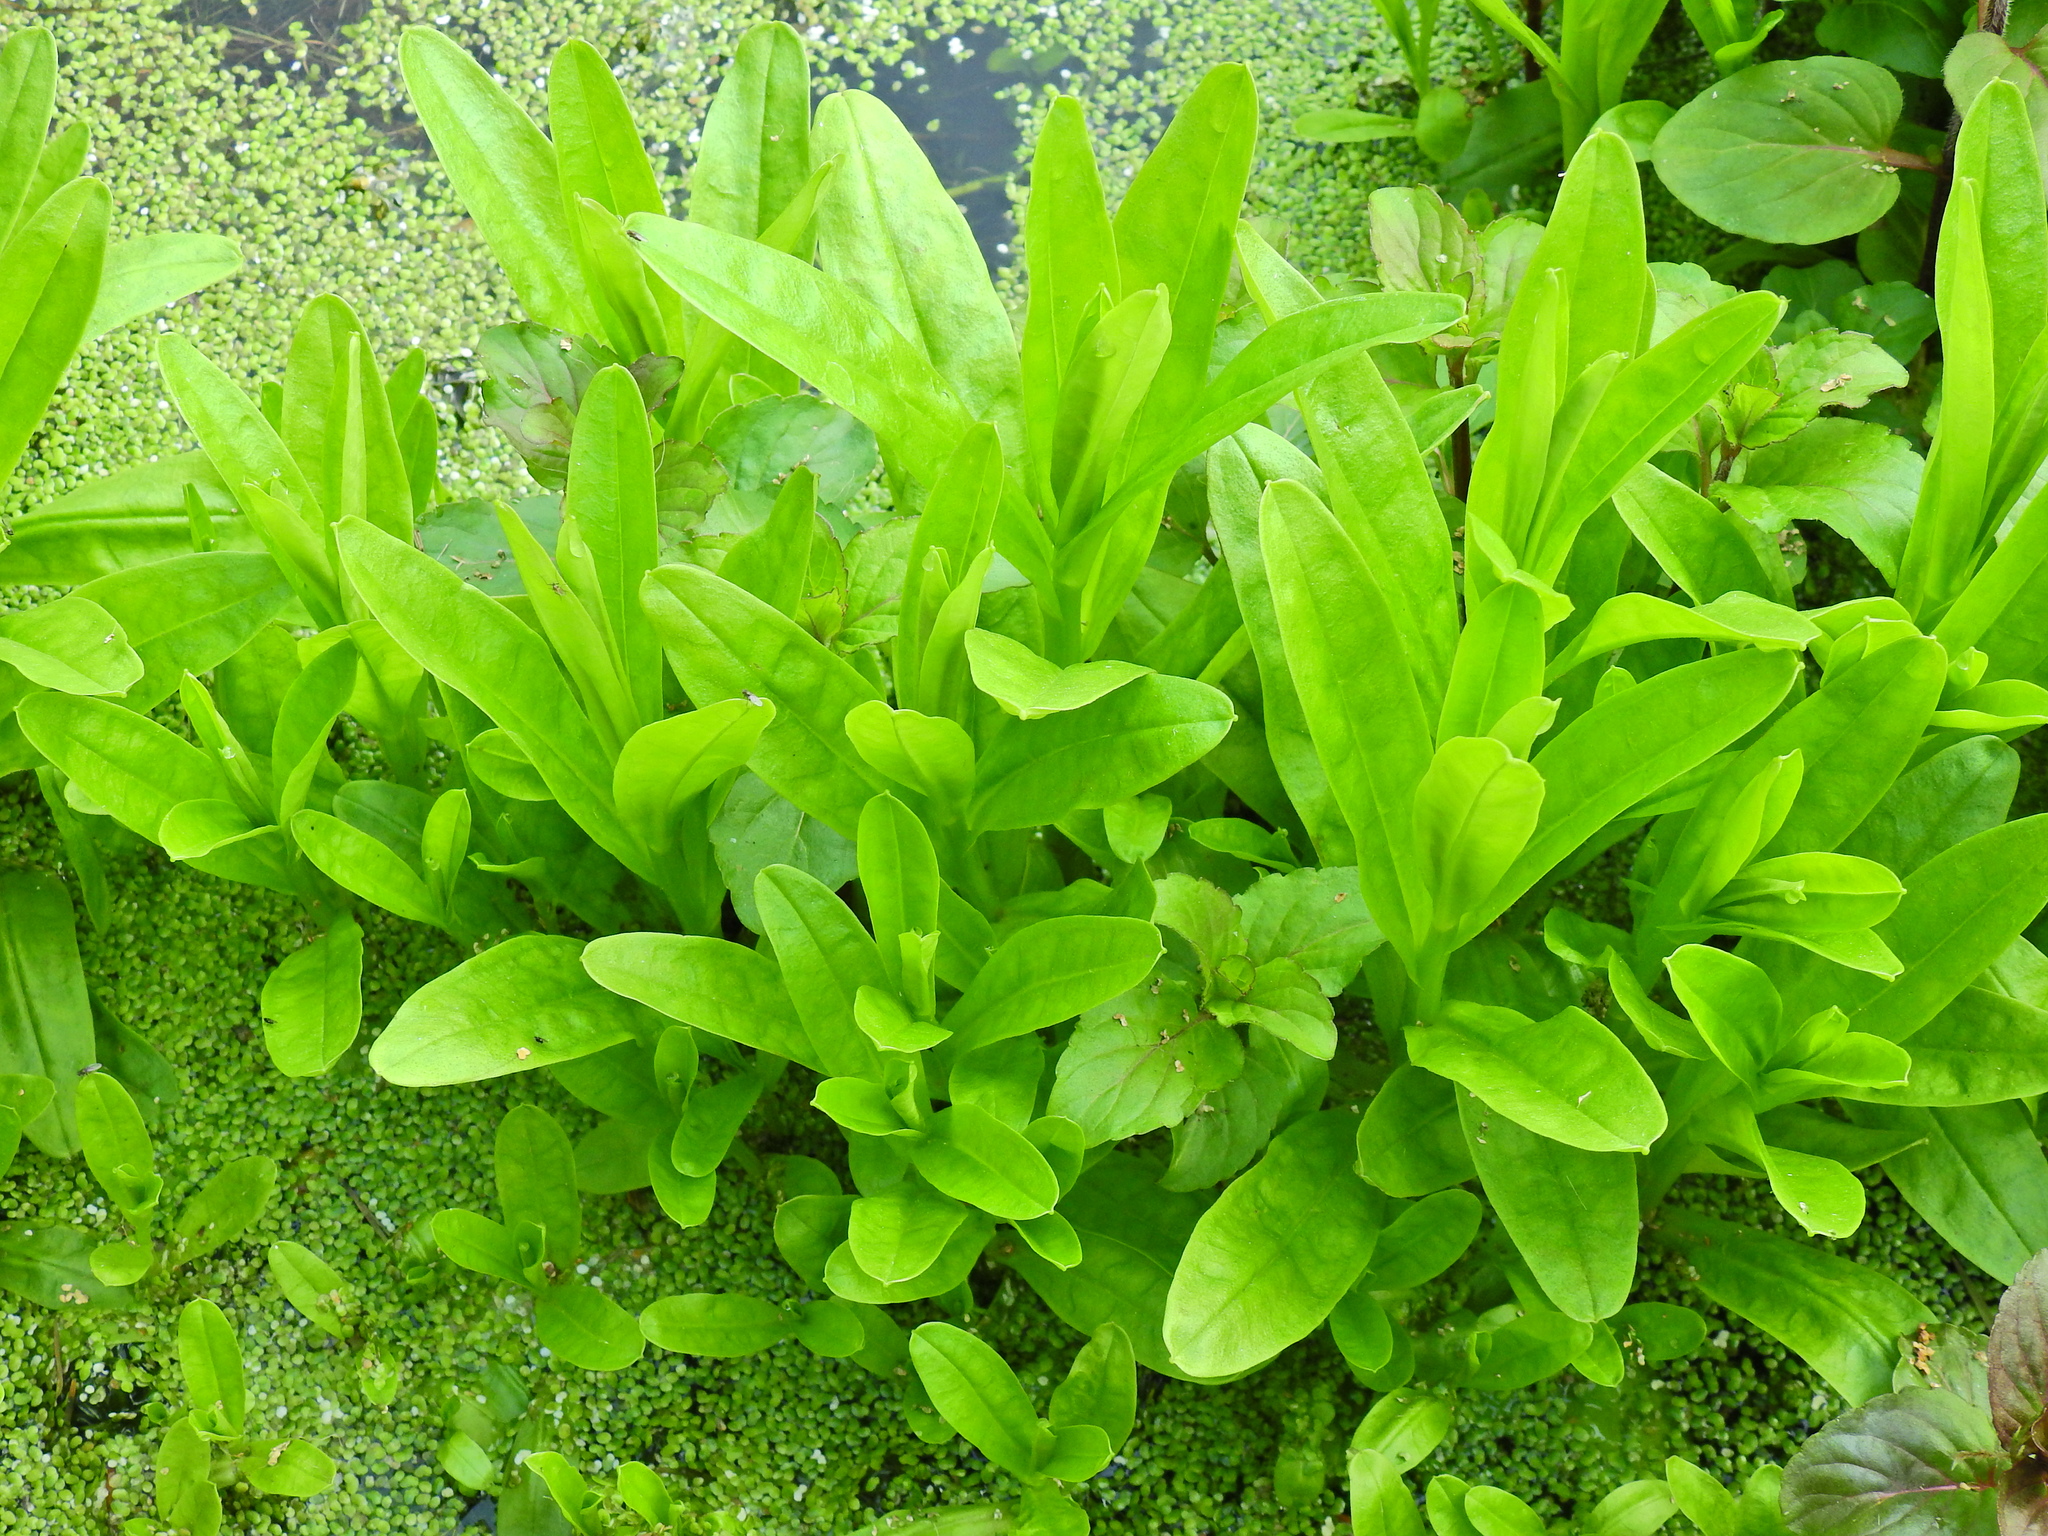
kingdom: Plantae
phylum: Tracheophyta
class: Magnoliopsida
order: Boraginales
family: Boraginaceae
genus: Myosotis
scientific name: Myosotis scorpioides
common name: Water forget-me-not
